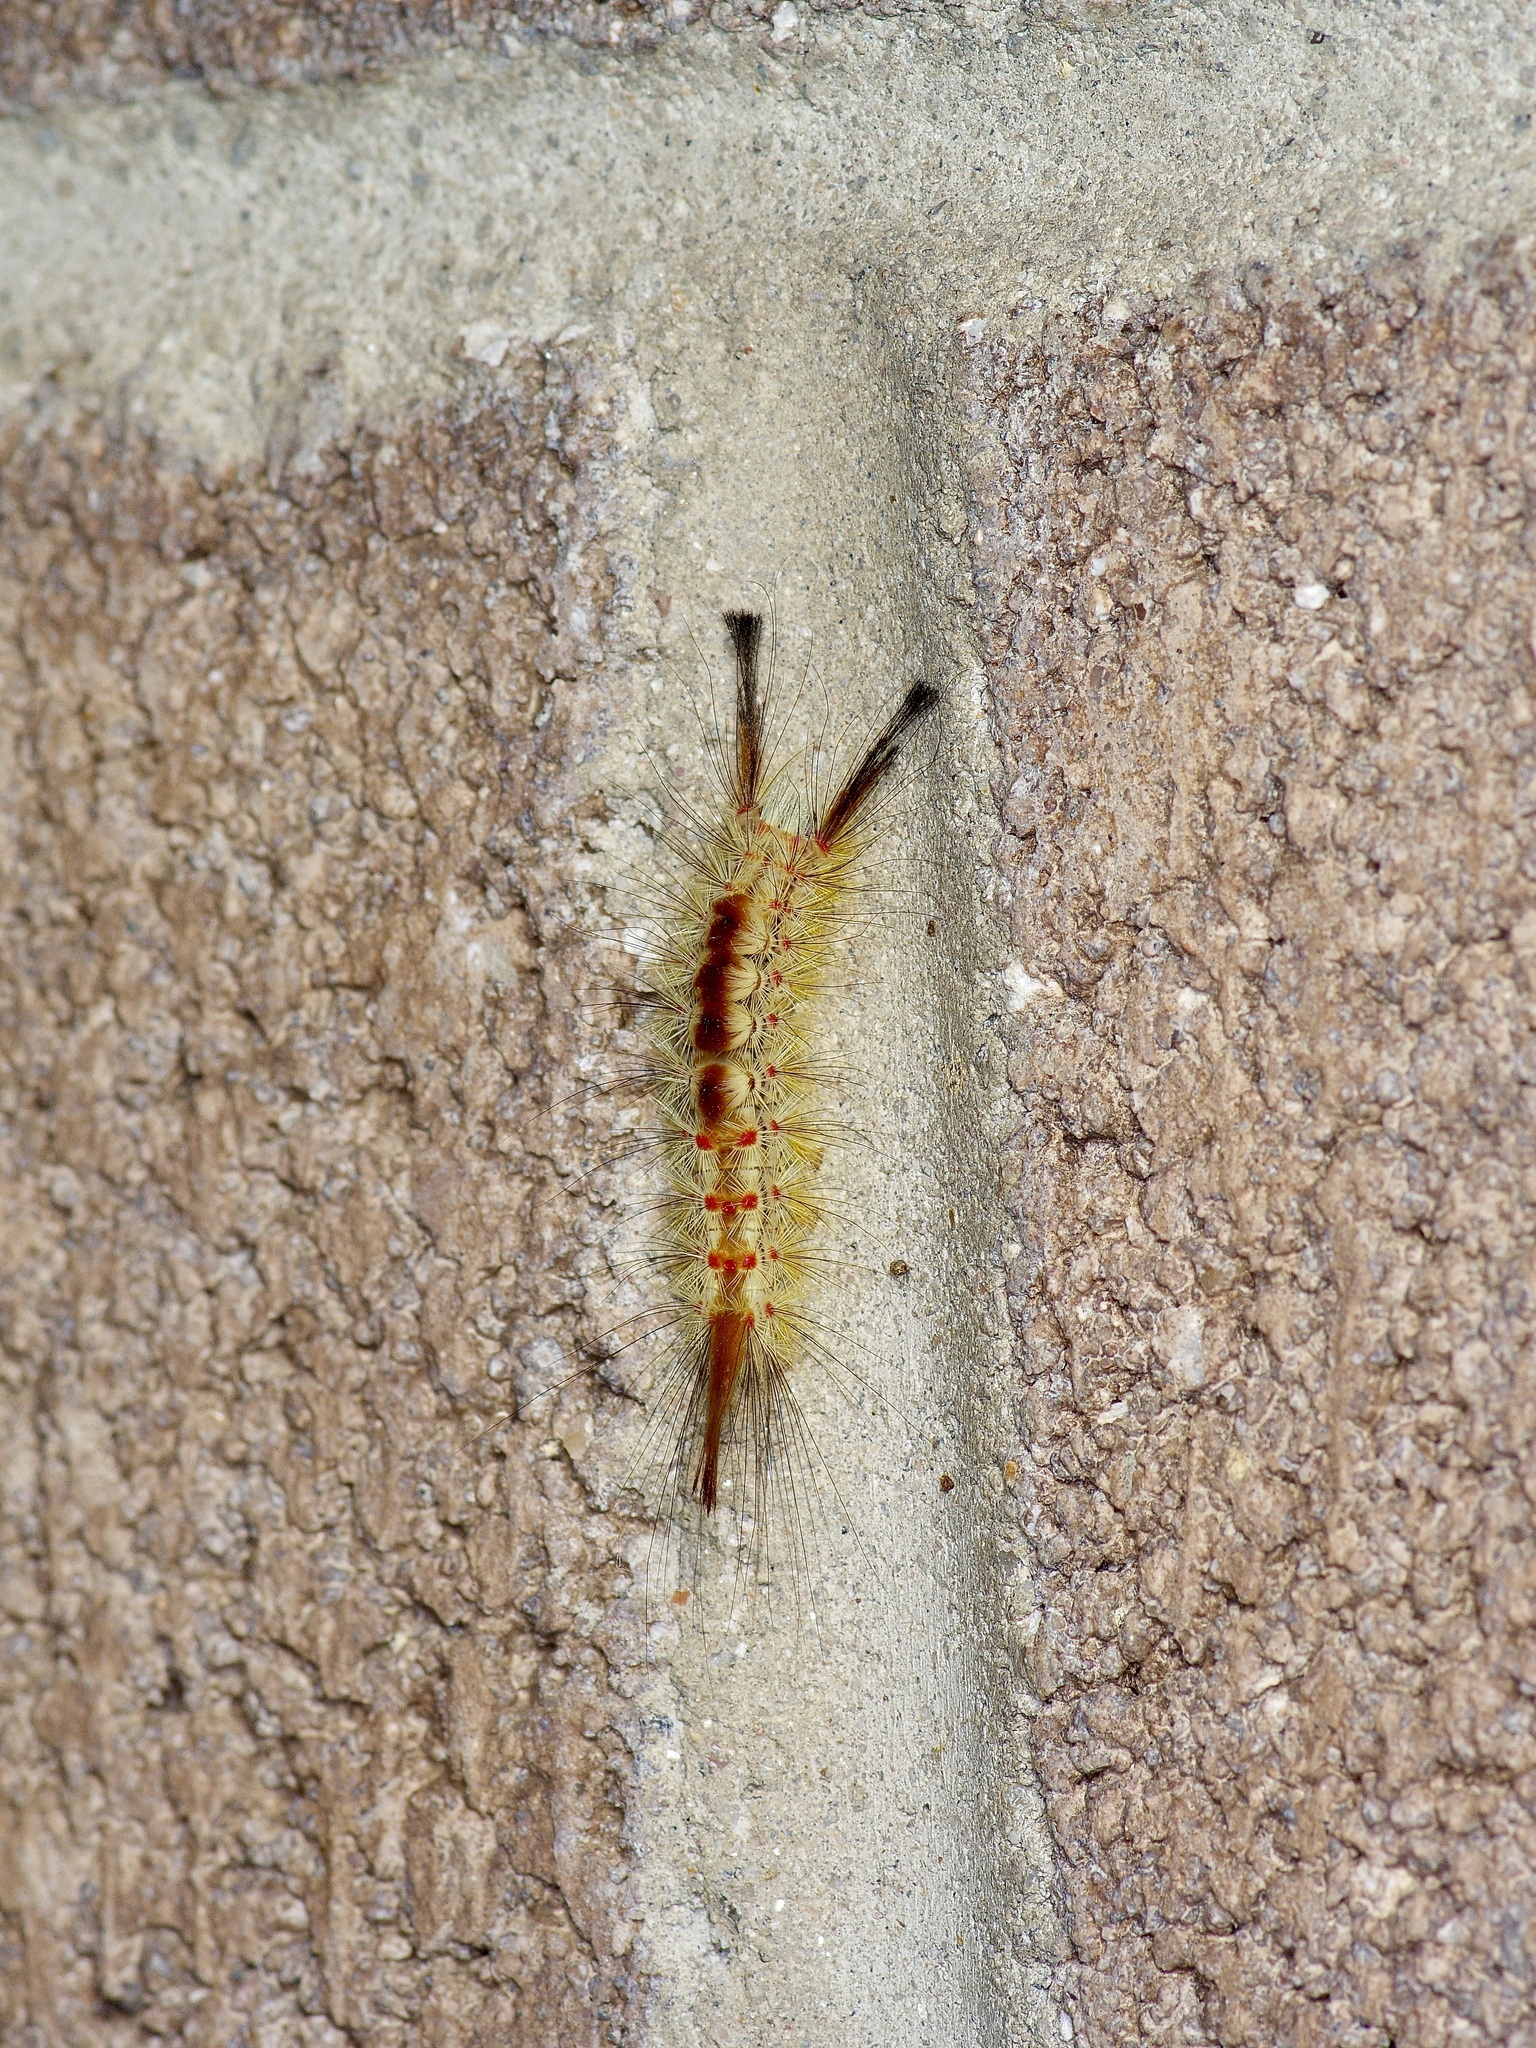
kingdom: Animalia
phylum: Arthropoda
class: Insecta
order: Lepidoptera
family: Erebidae
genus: Orgyia
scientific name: Orgyia pseudotsugata
